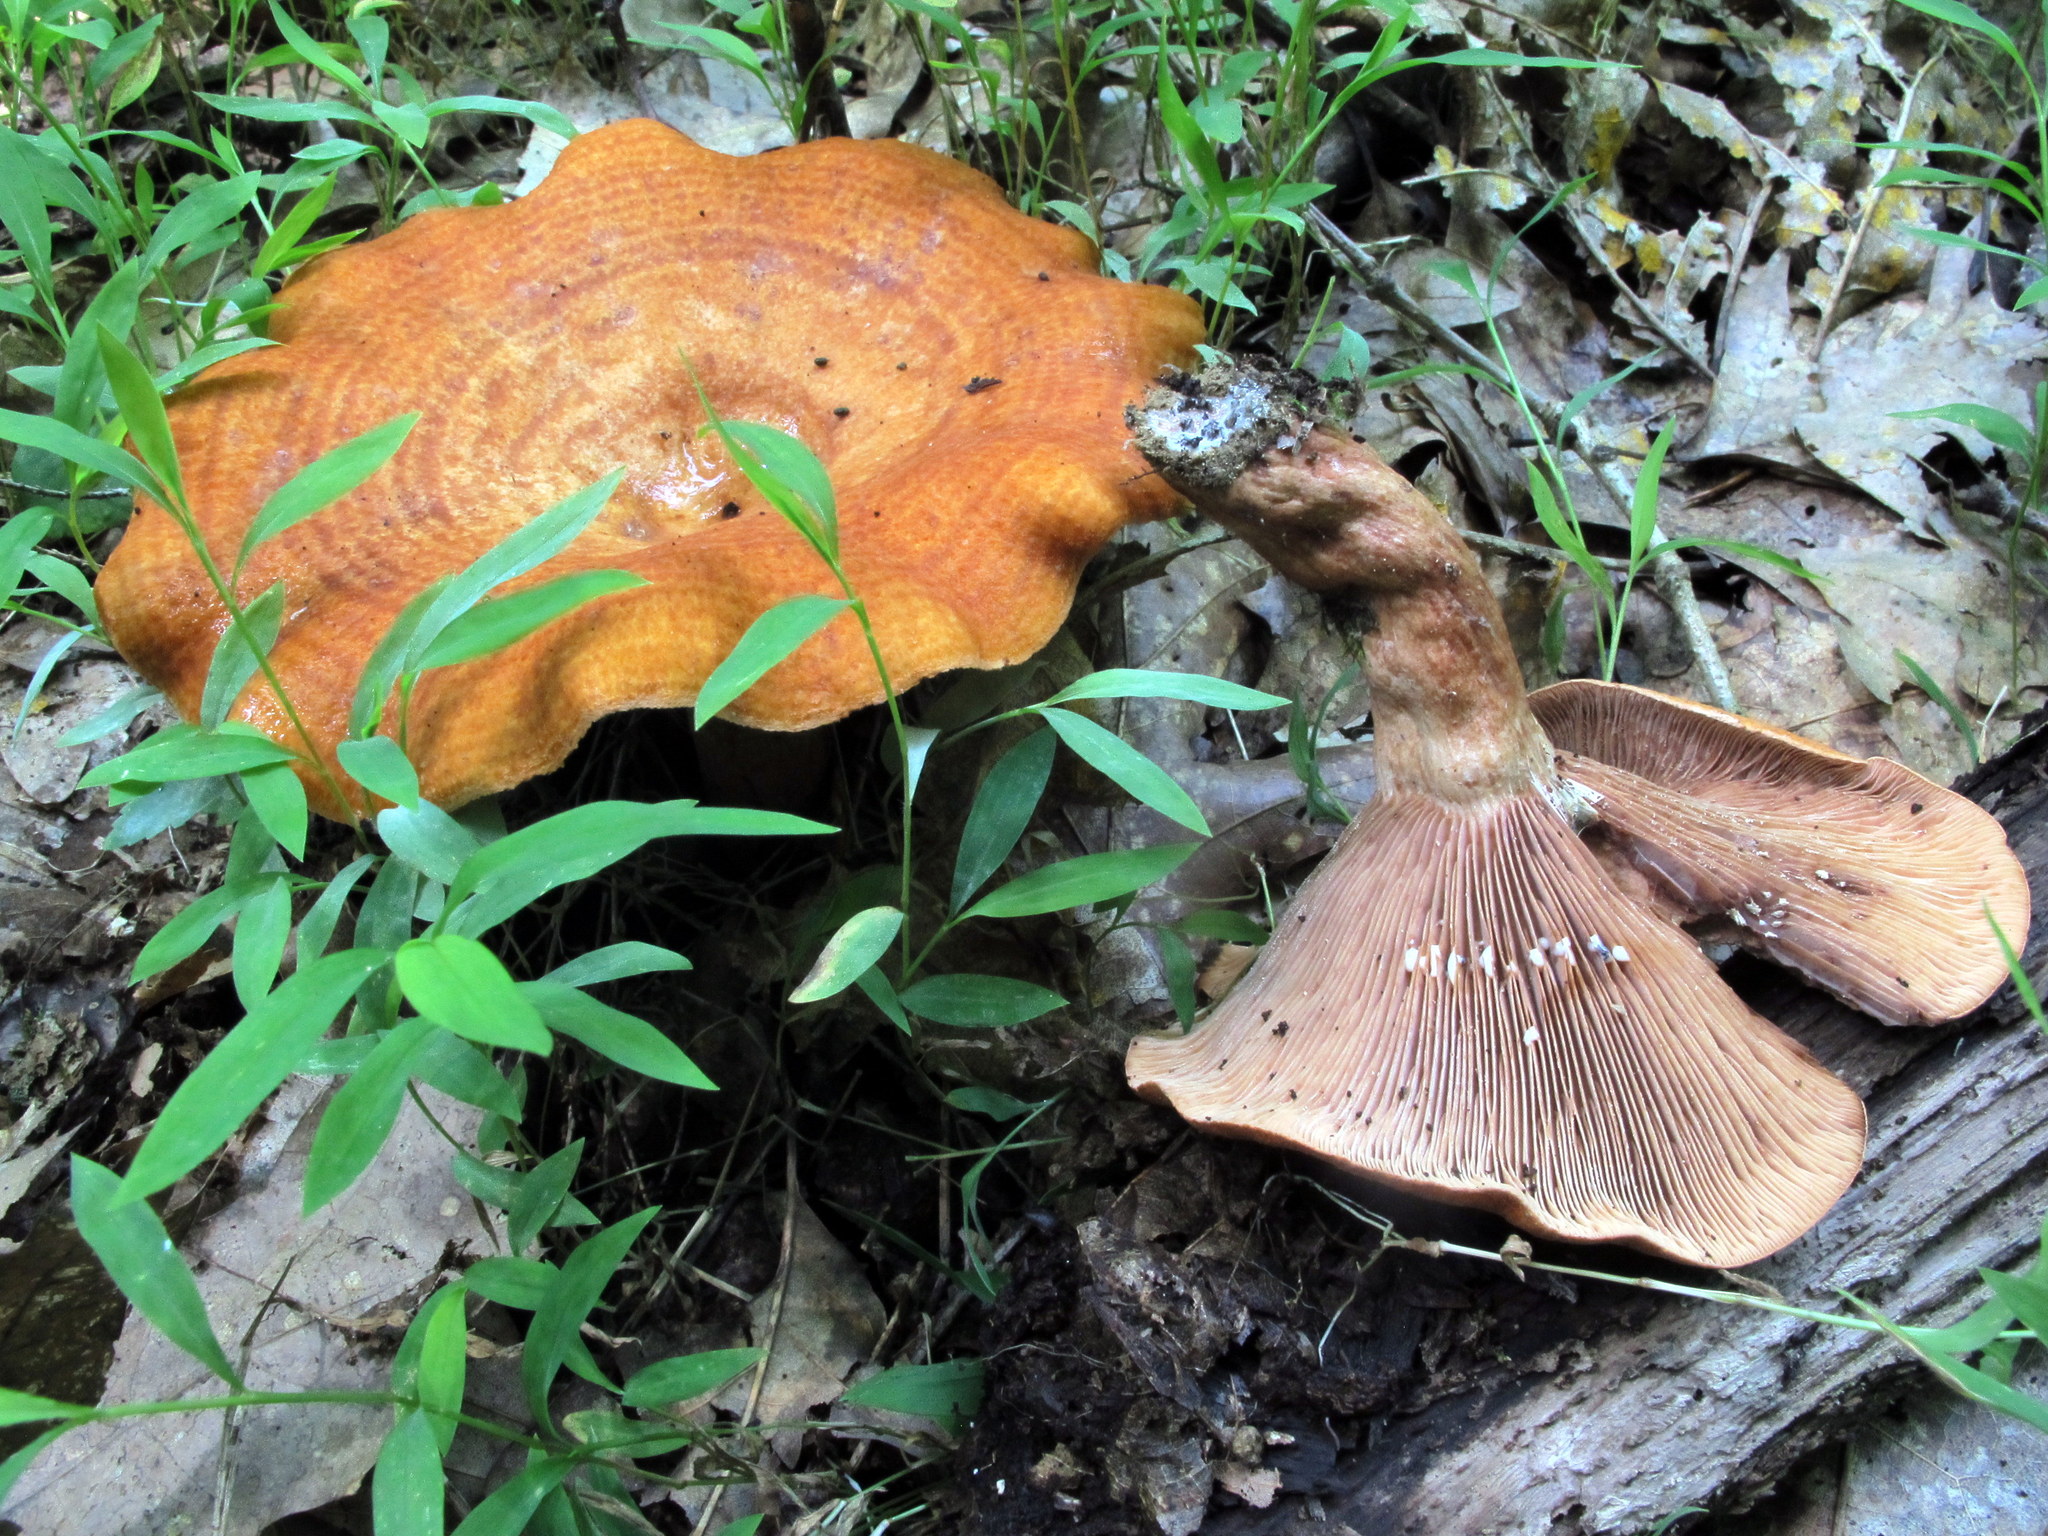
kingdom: Fungi
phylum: Basidiomycota
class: Agaricomycetes
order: Russulales
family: Russulaceae
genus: Lactarius
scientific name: Lactarius peckii
